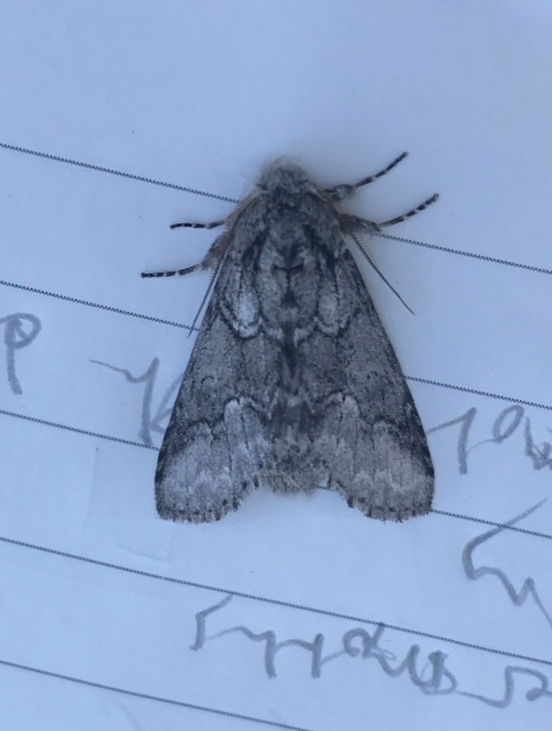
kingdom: Animalia
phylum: Arthropoda
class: Insecta
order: Lepidoptera
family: Notodontidae
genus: Lochmaeus
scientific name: Lochmaeus bilineata
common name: Double-lined prominent
